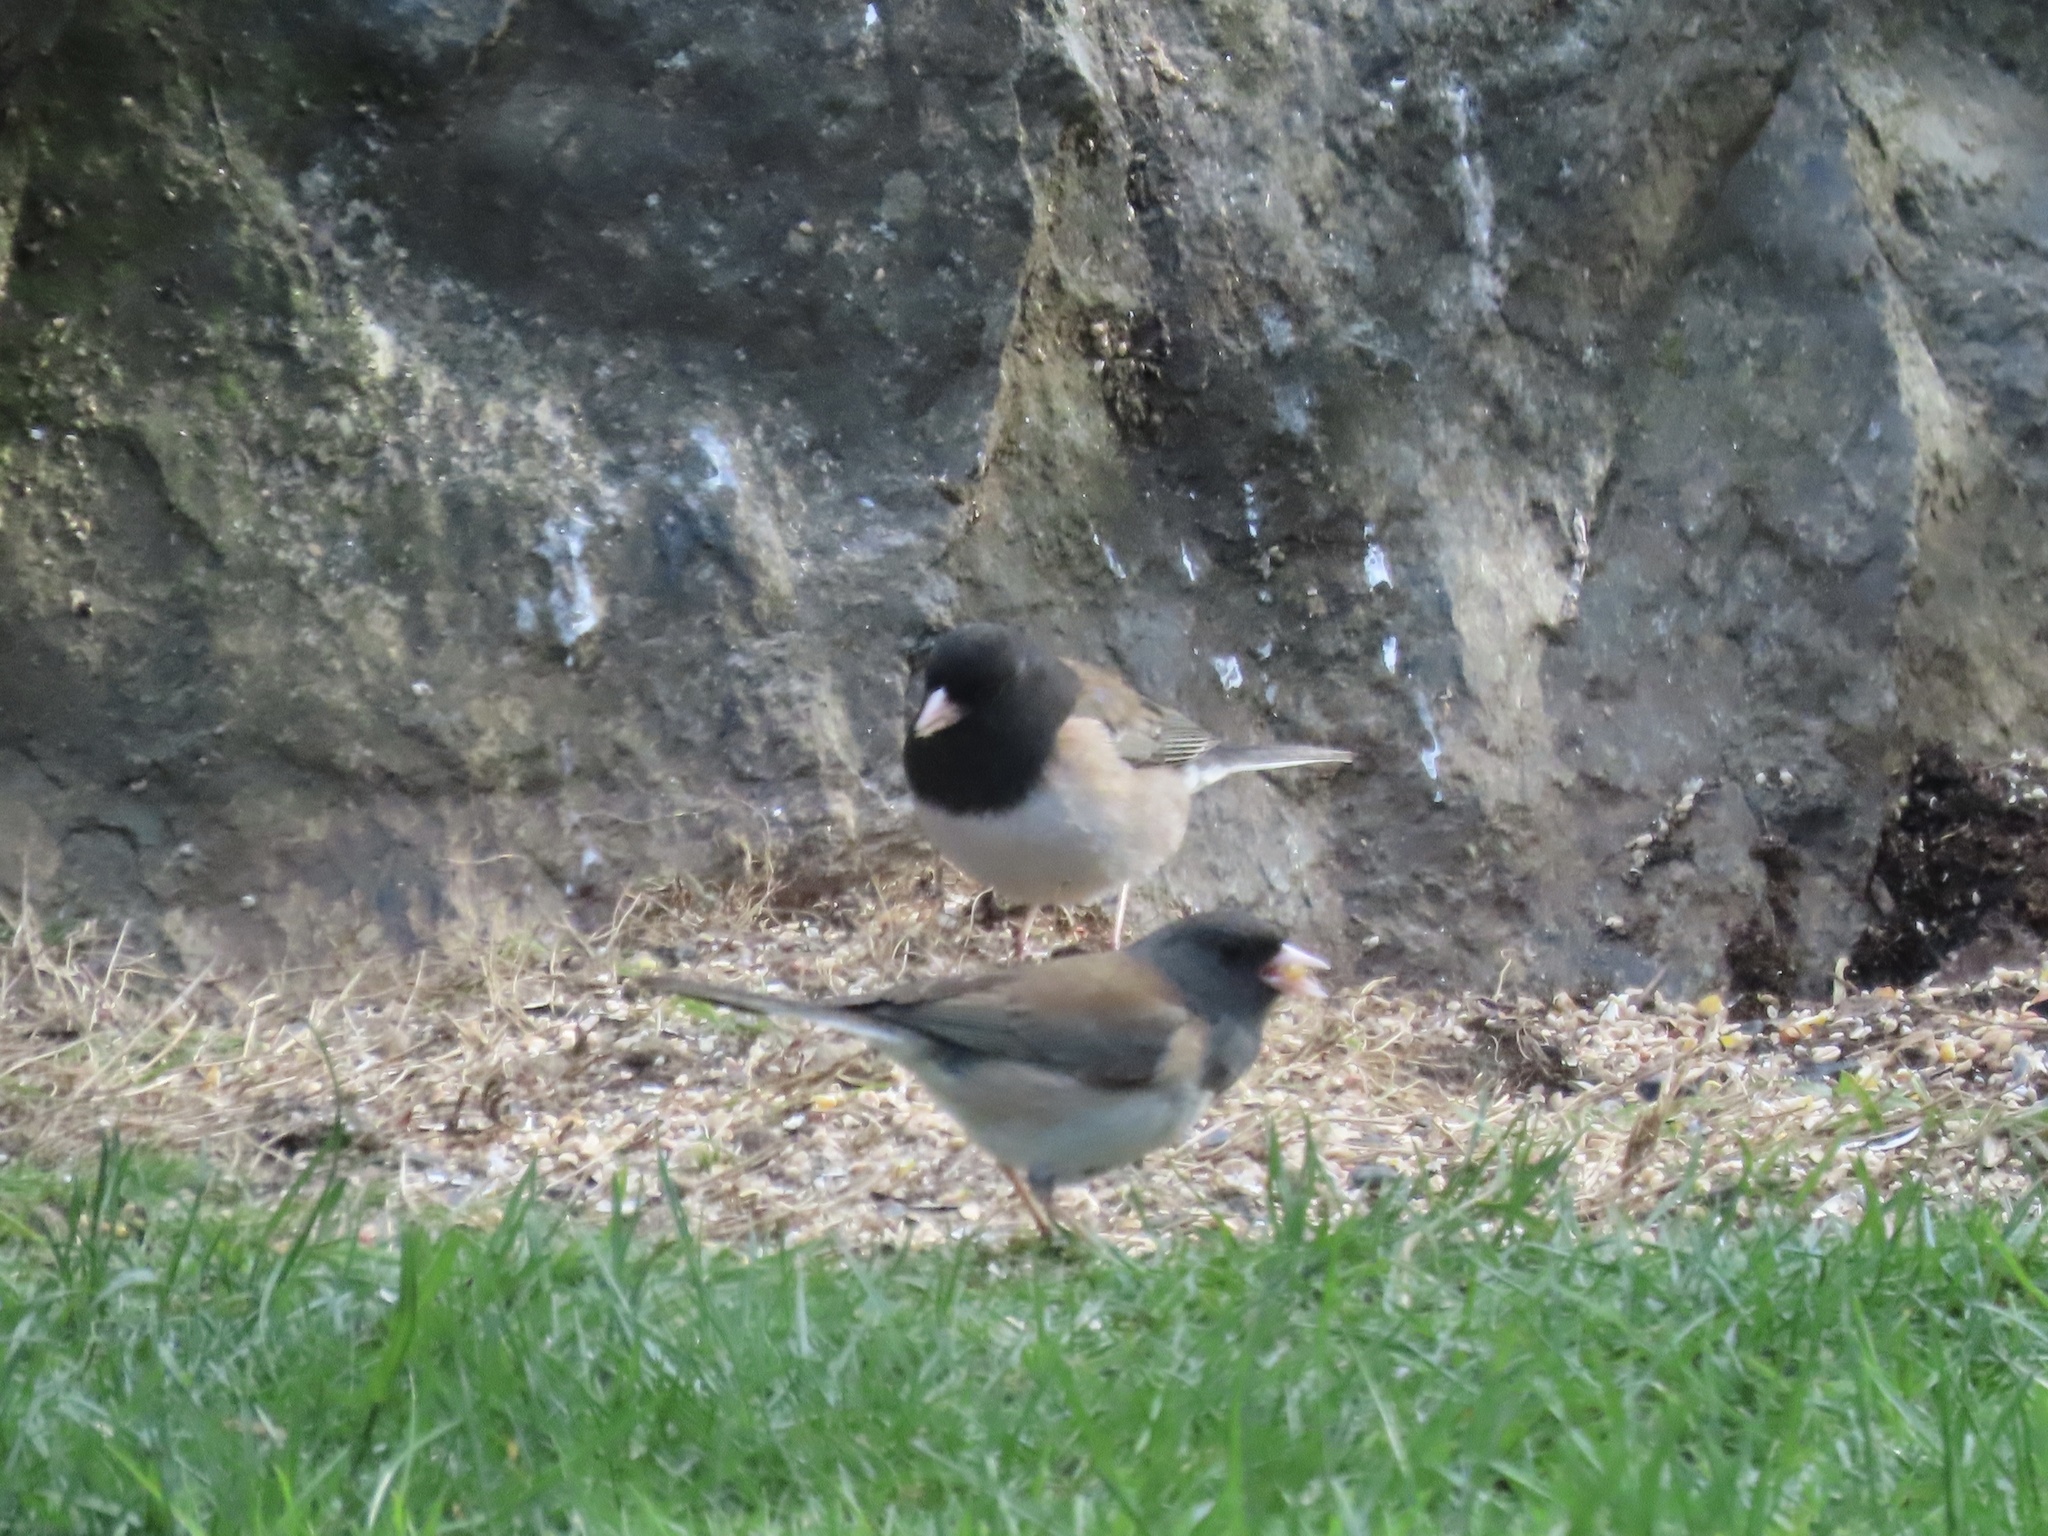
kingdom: Animalia
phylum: Chordata
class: Aves
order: Passeriformes
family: Passerellidae
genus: Junco
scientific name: Junco hyemalis
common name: Dark-eyed junco
